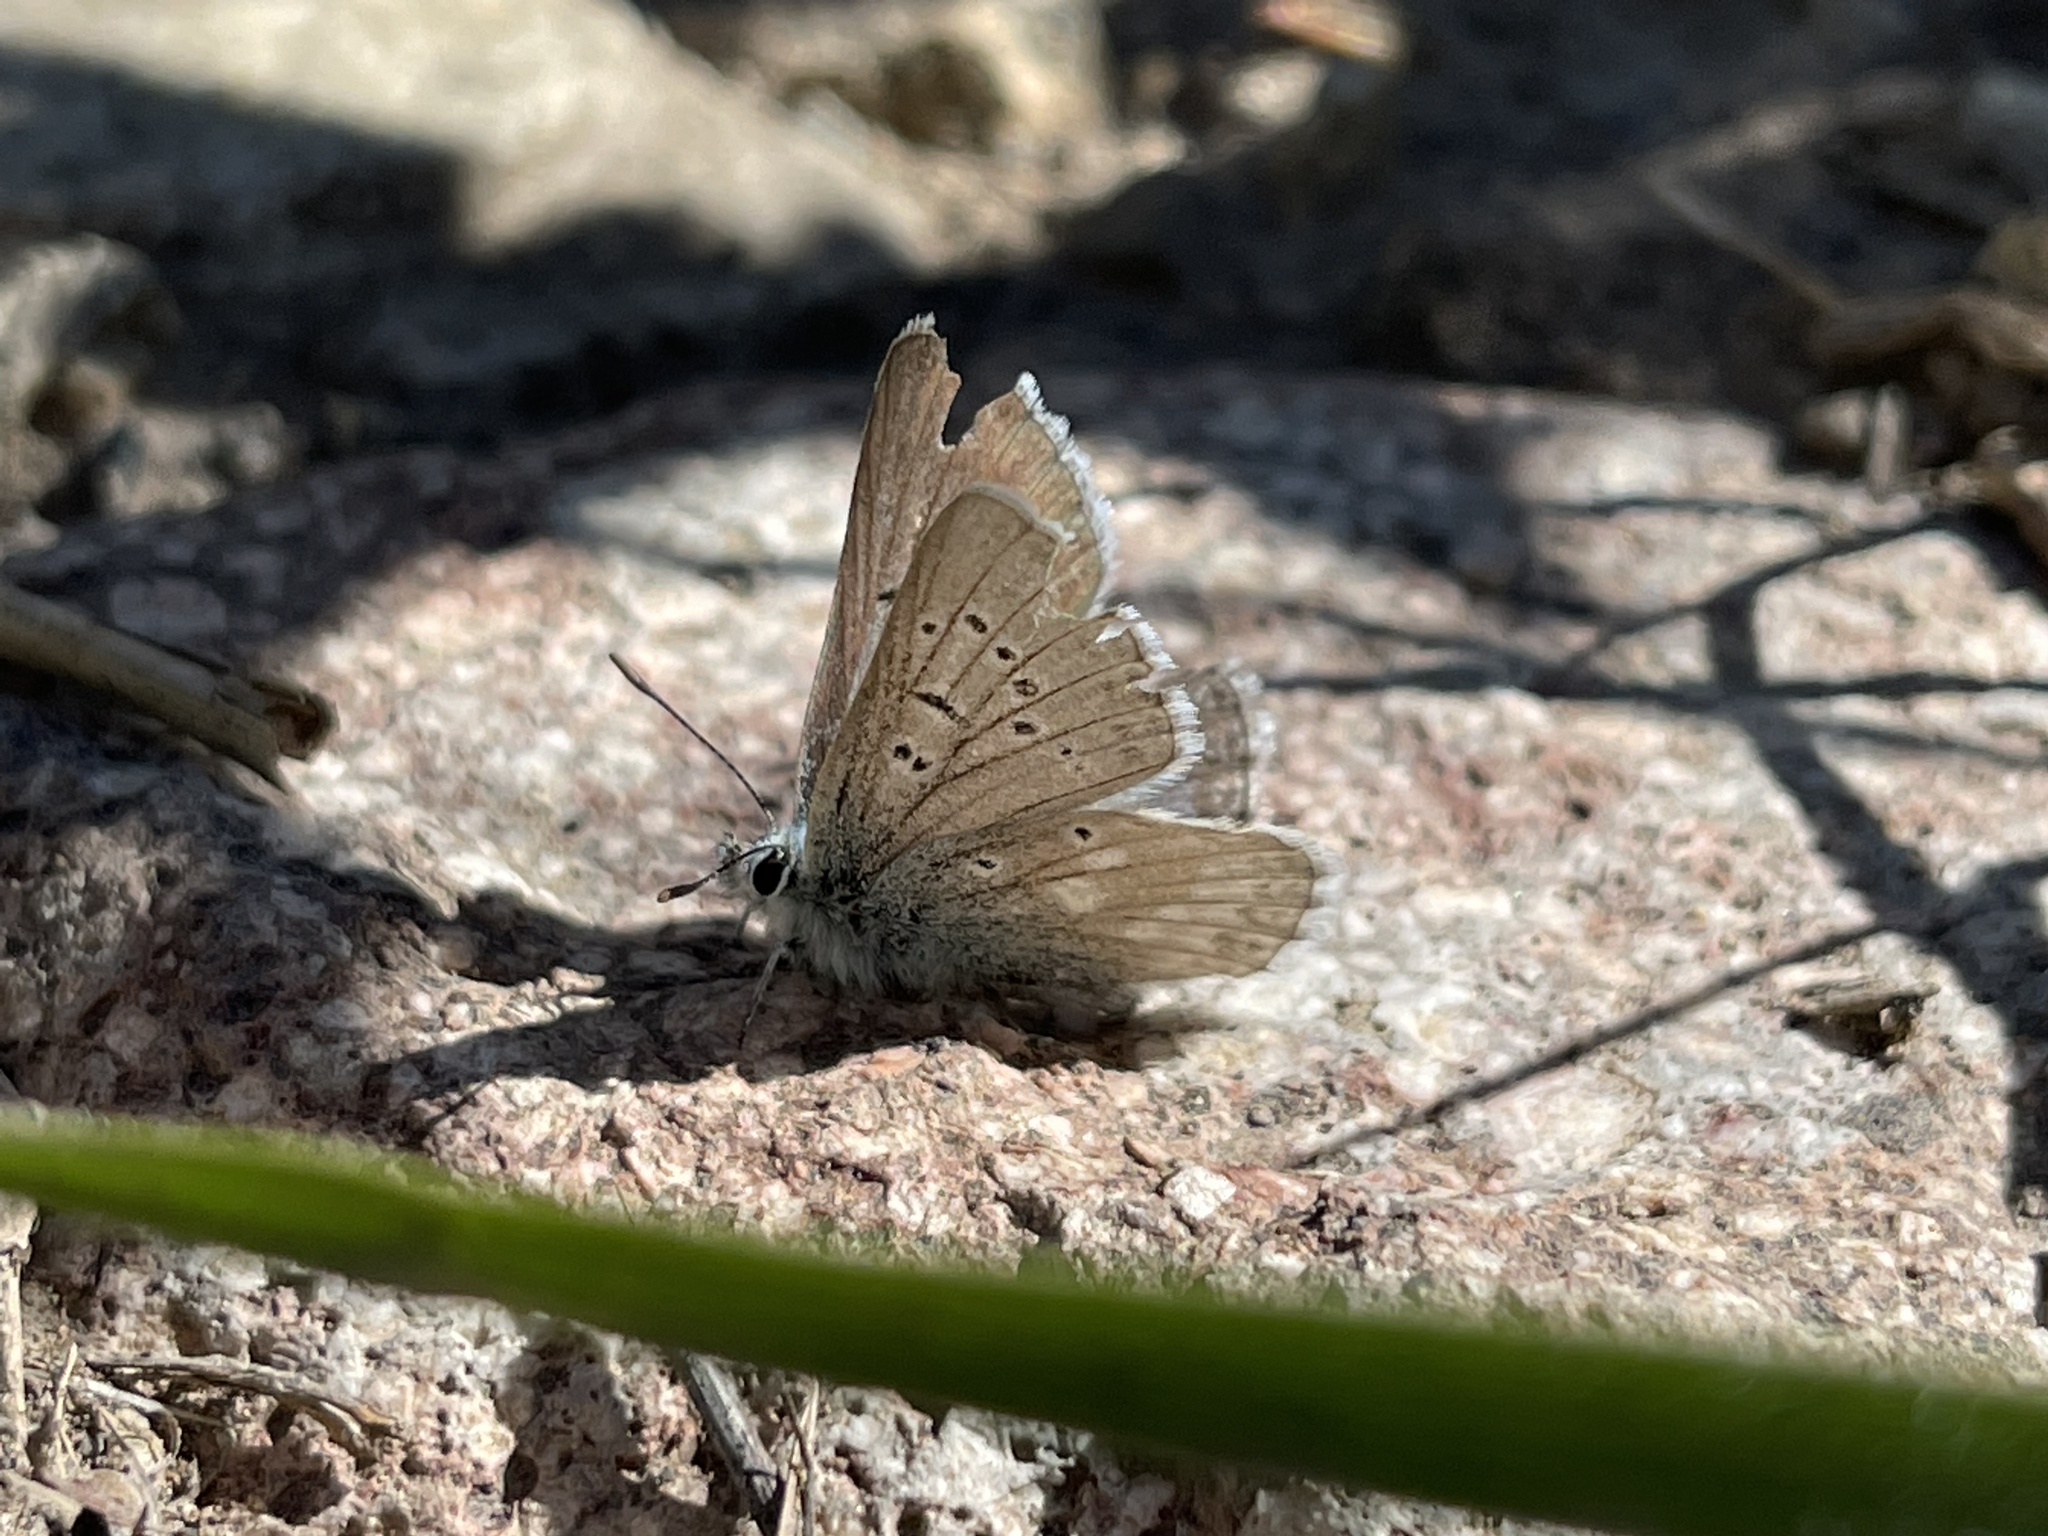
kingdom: Animalia
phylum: Arthropoda
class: Insecta
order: Lepidoptera
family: Lycaenidae
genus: Agriades
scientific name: Agriades glandon
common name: Glandon blue
